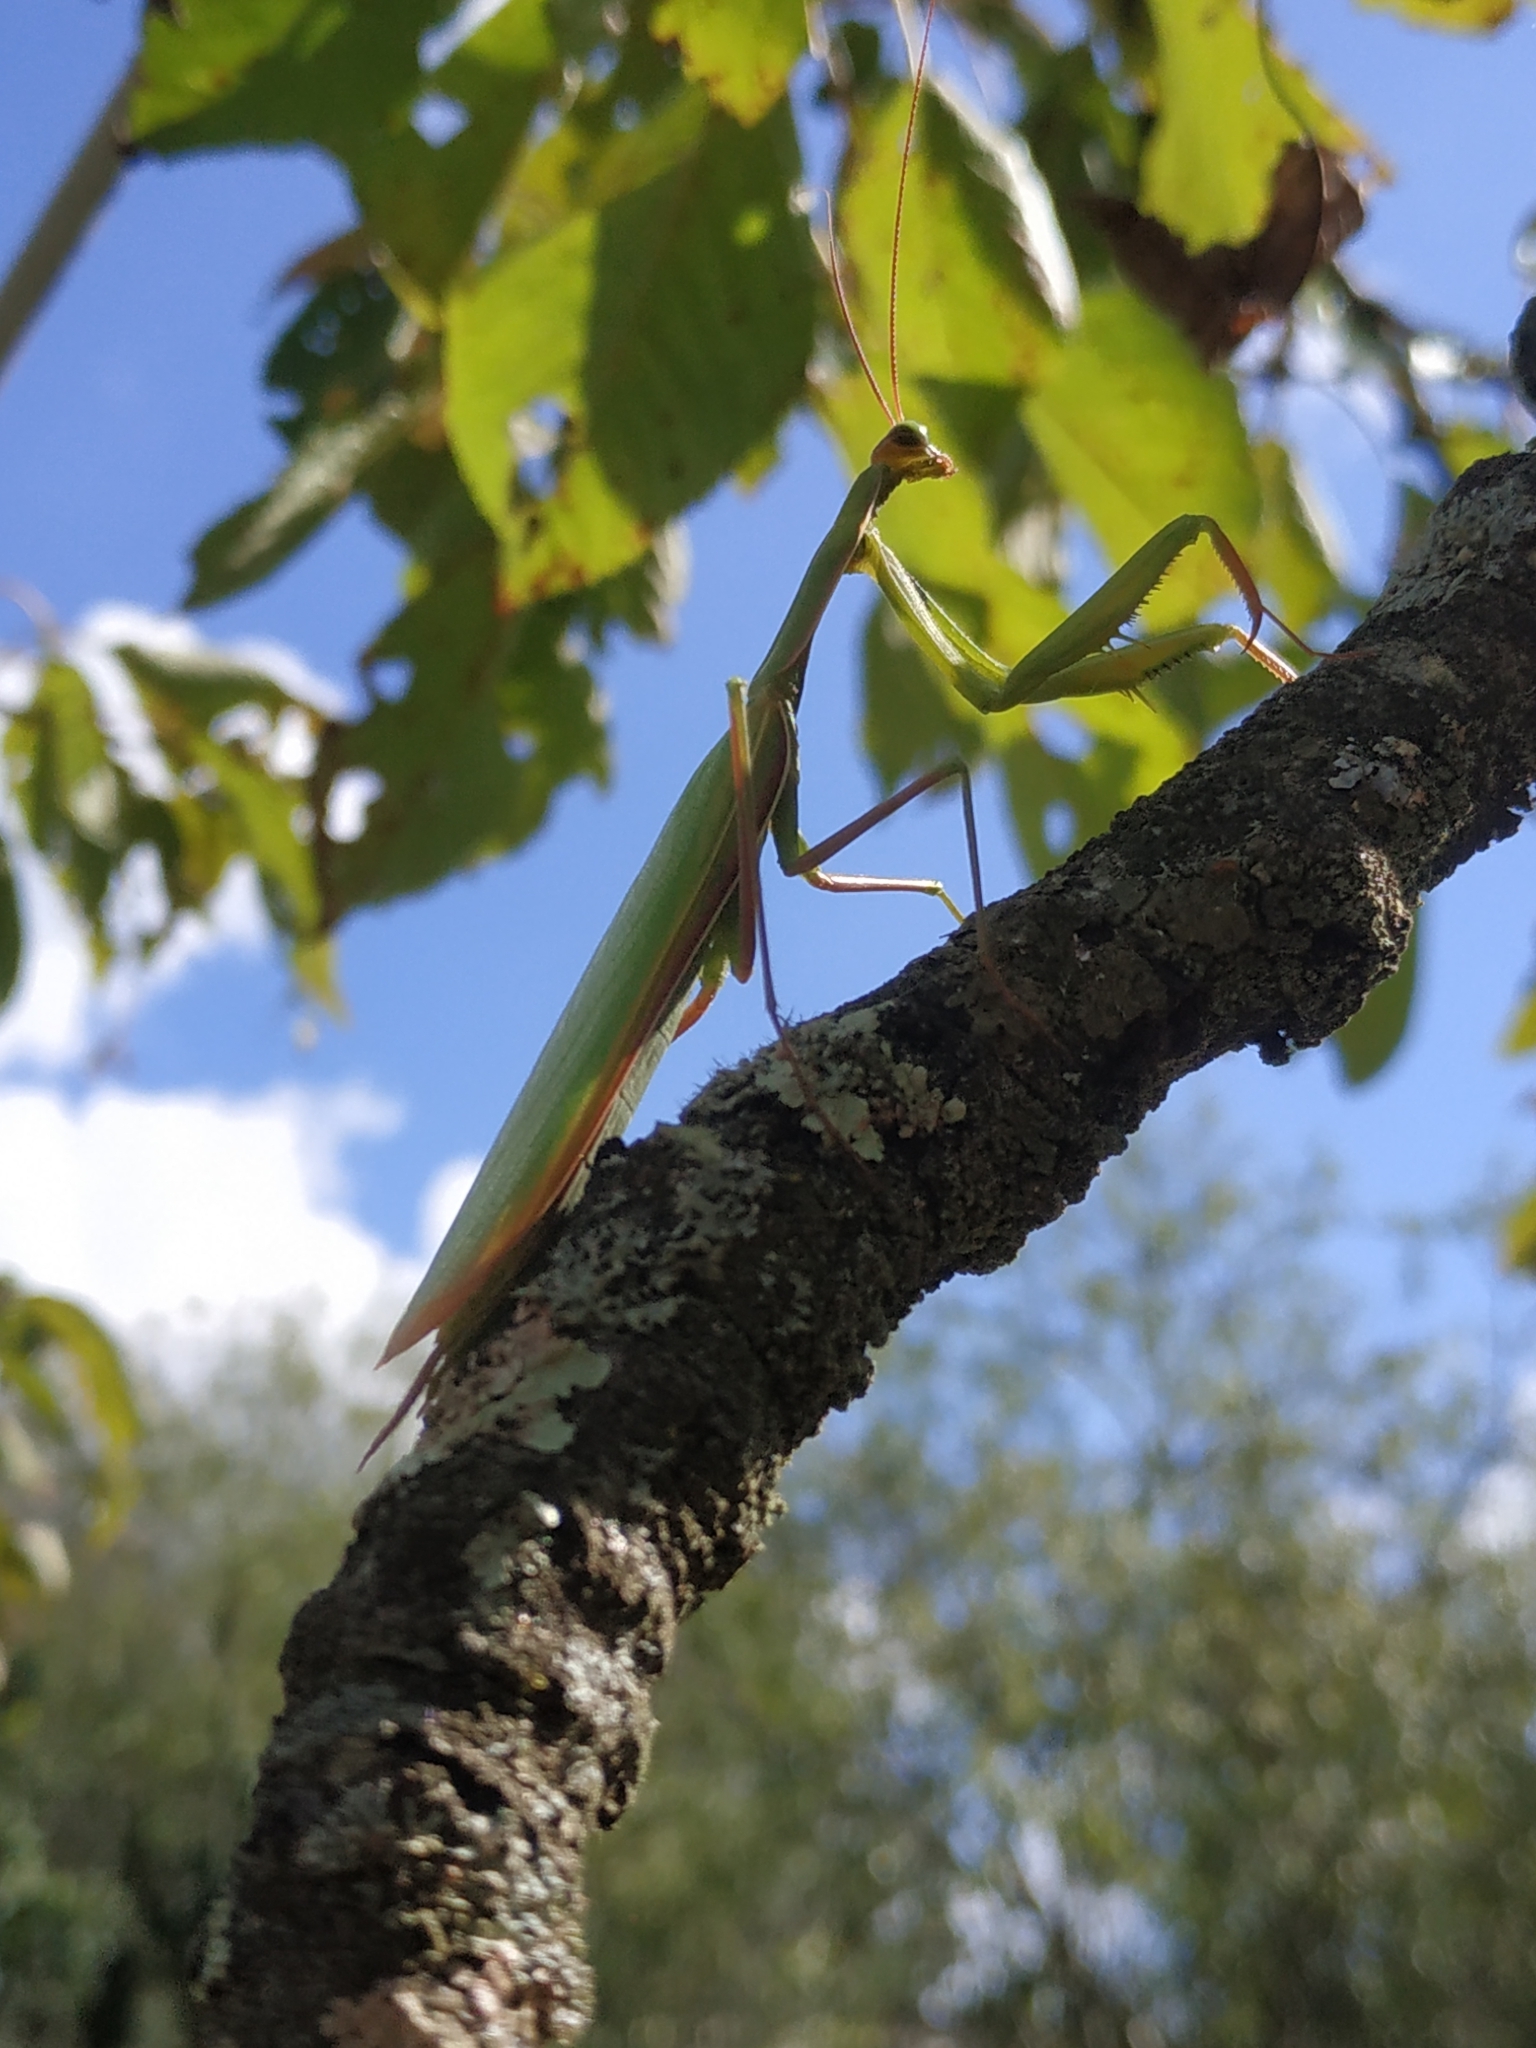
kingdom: Animalia
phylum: Arthropoda
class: Insecta
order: Mantodea
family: Mantidae
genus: Mantis
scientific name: Mantis religiosa
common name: Praying mantis
